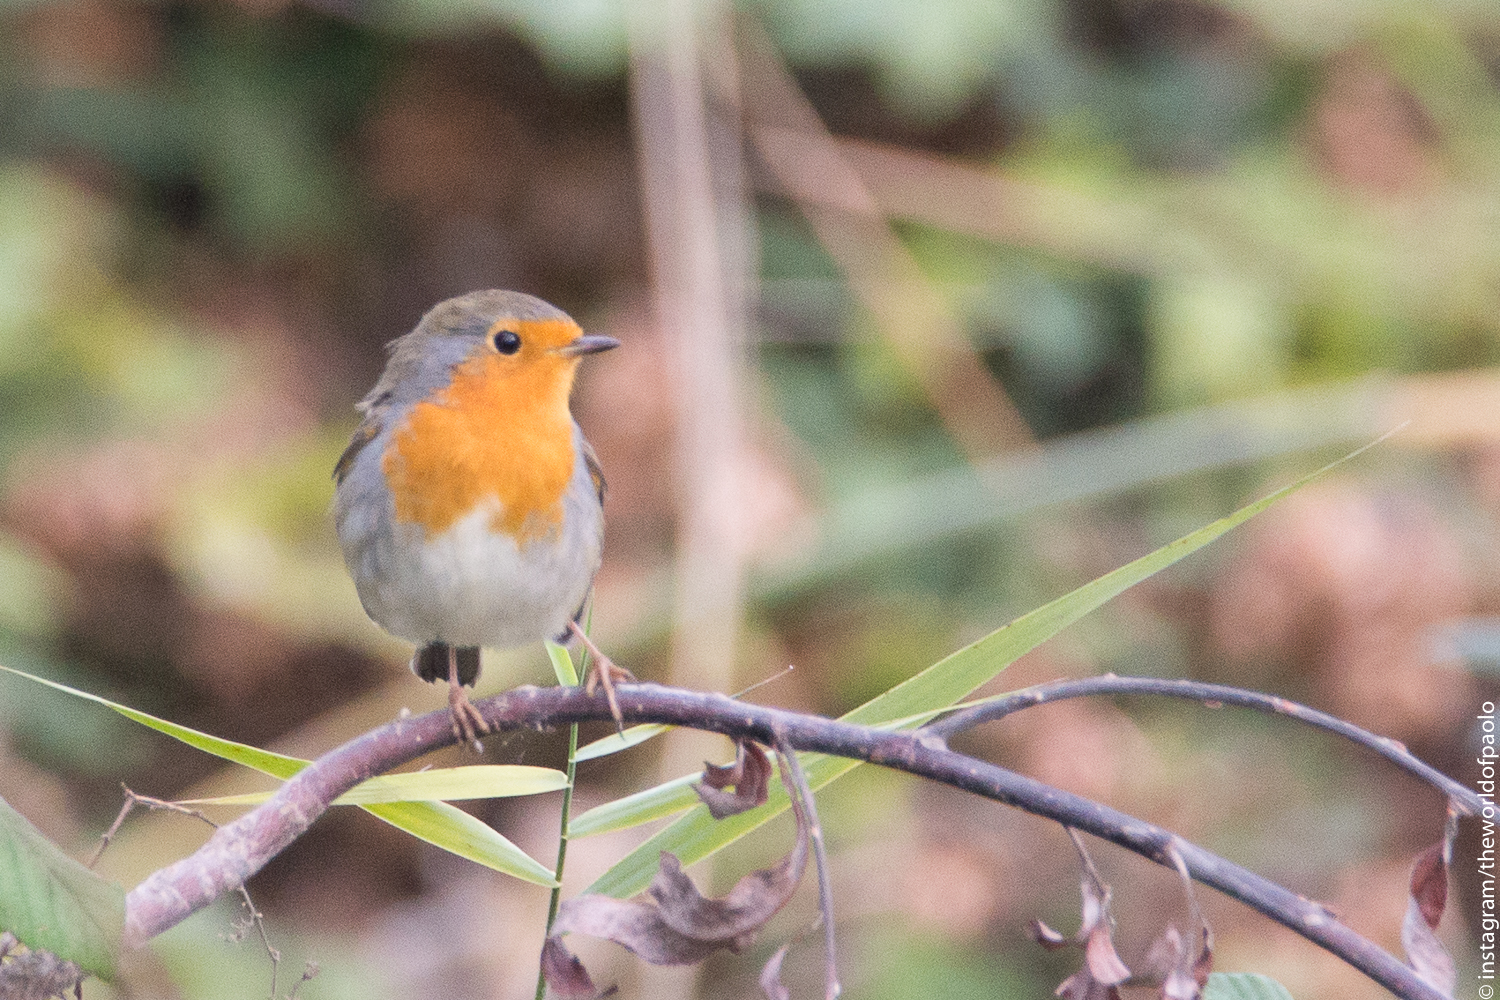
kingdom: Animalia
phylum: Chordata
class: Aves
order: Passeriformes
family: Muscicapidae
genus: Erithacus
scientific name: Erithacus rubecula
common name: European robin
